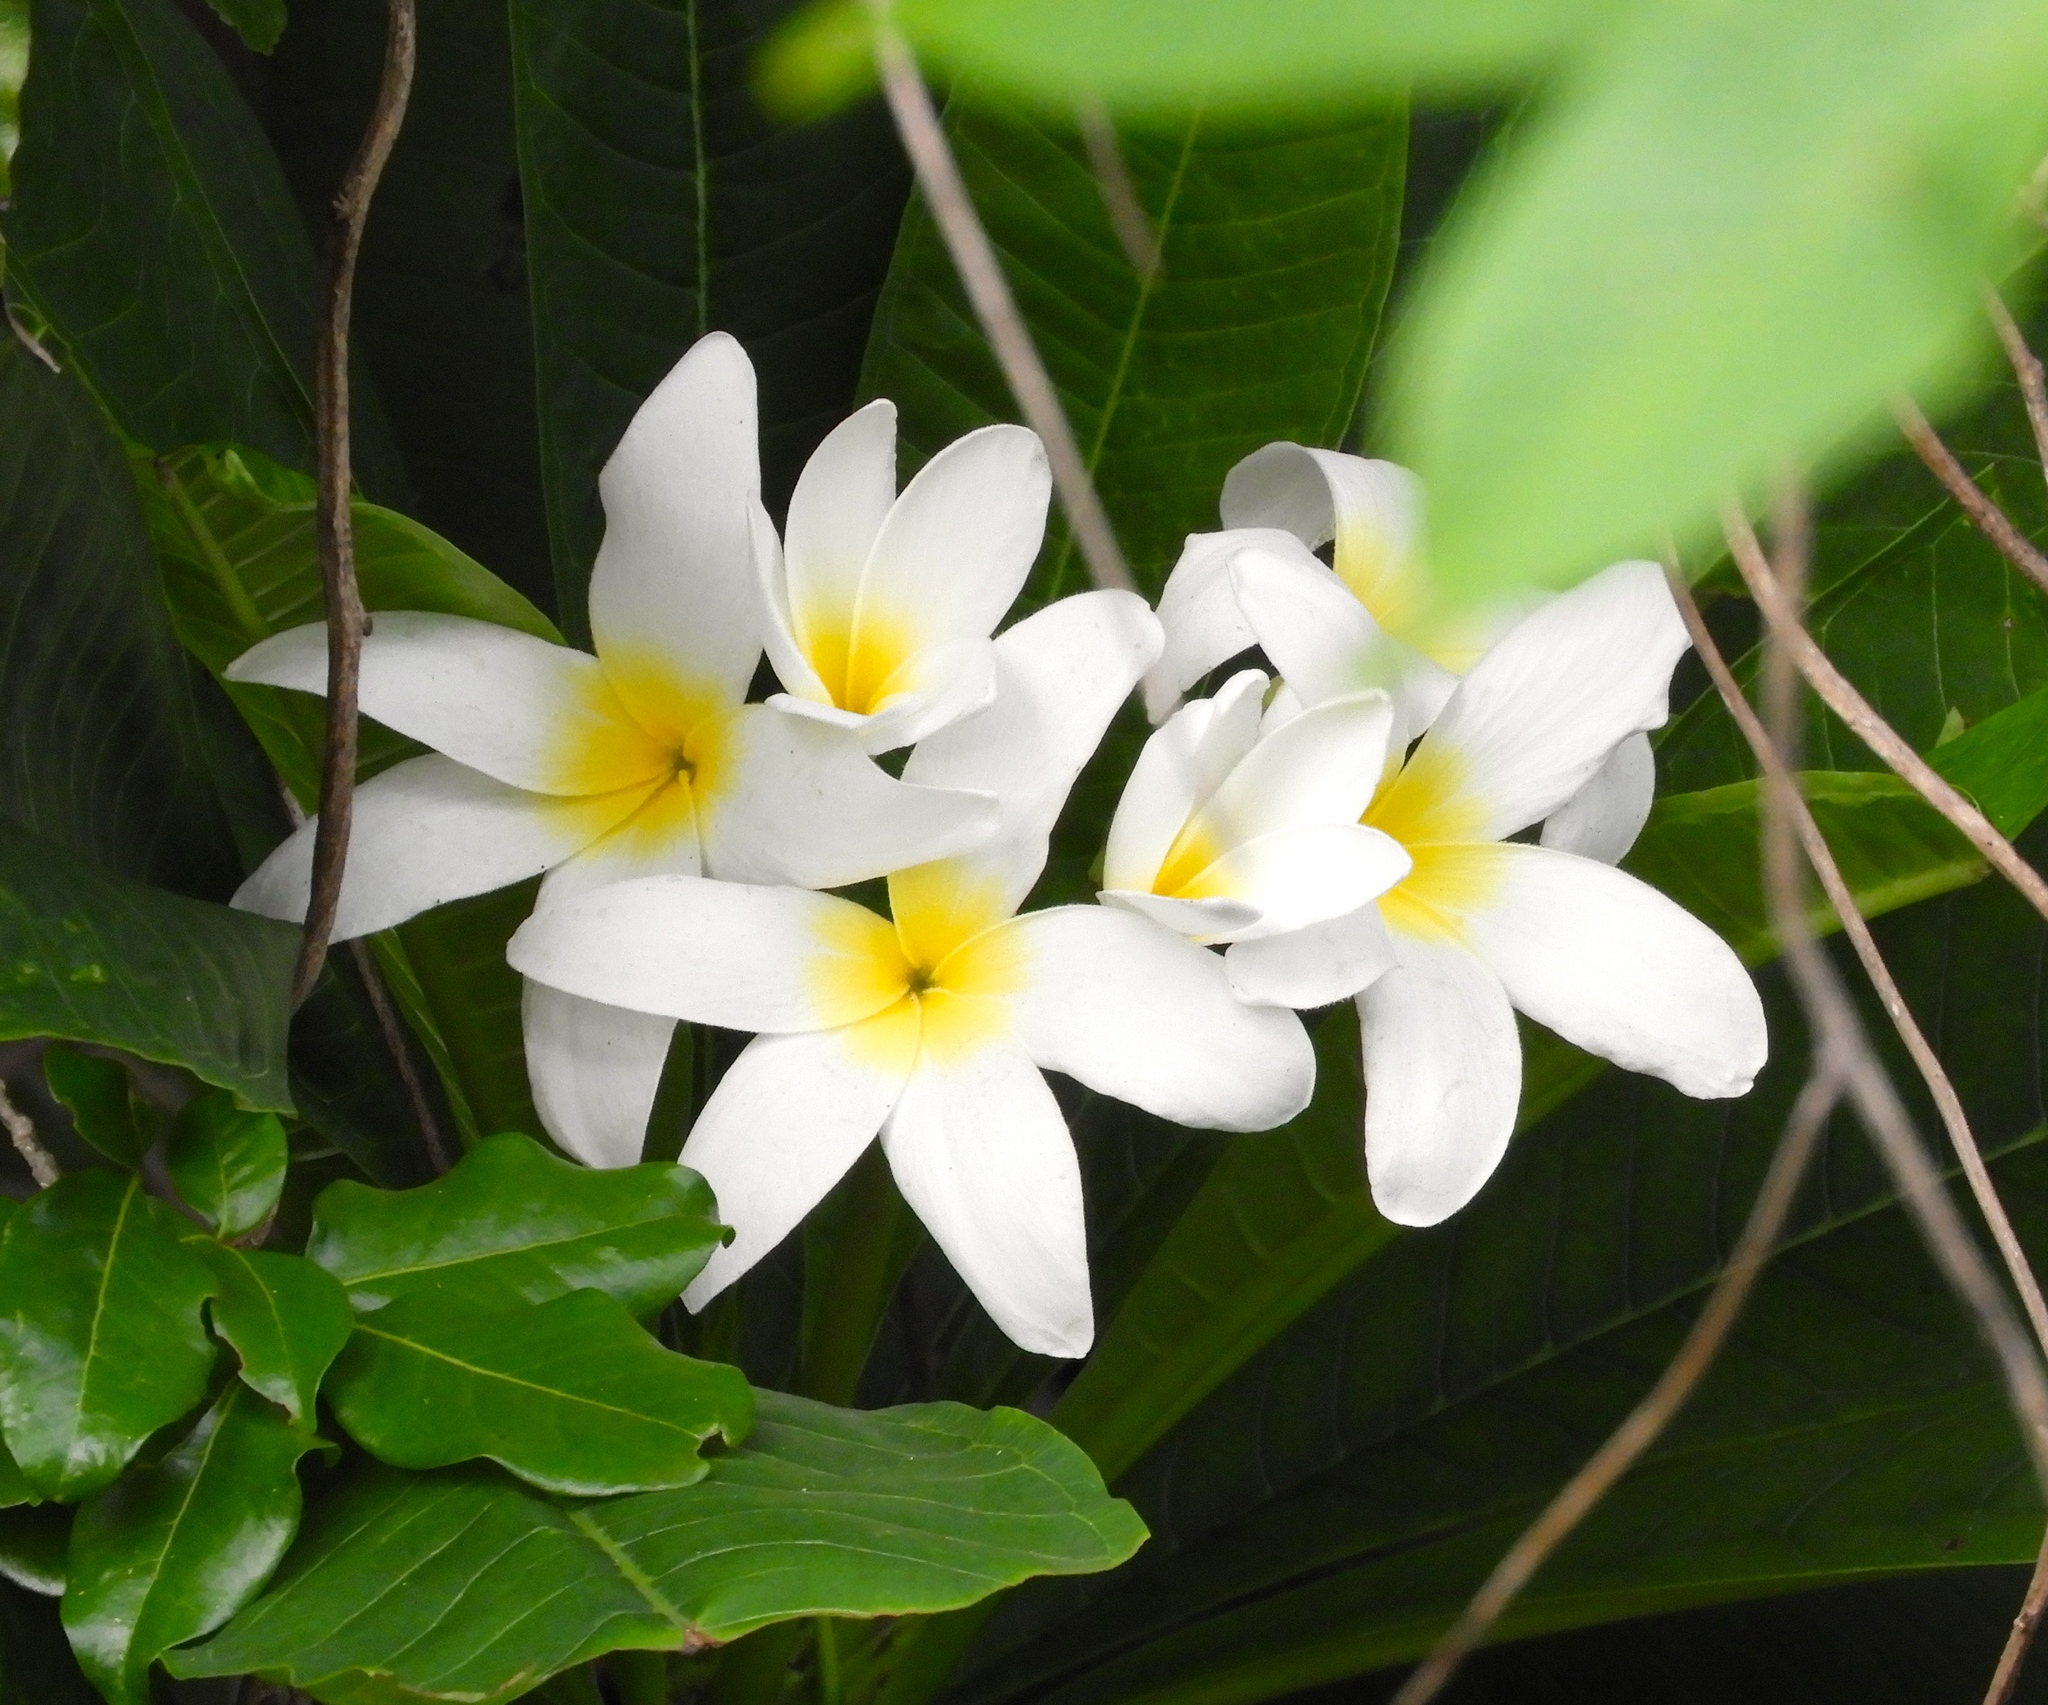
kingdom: Plantae
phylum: Tracheophyta
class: Magnoliopsida
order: Gentianales
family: Apocynaceae
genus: Plumeria
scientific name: Plumeria rubra
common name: Pagoda-tree
